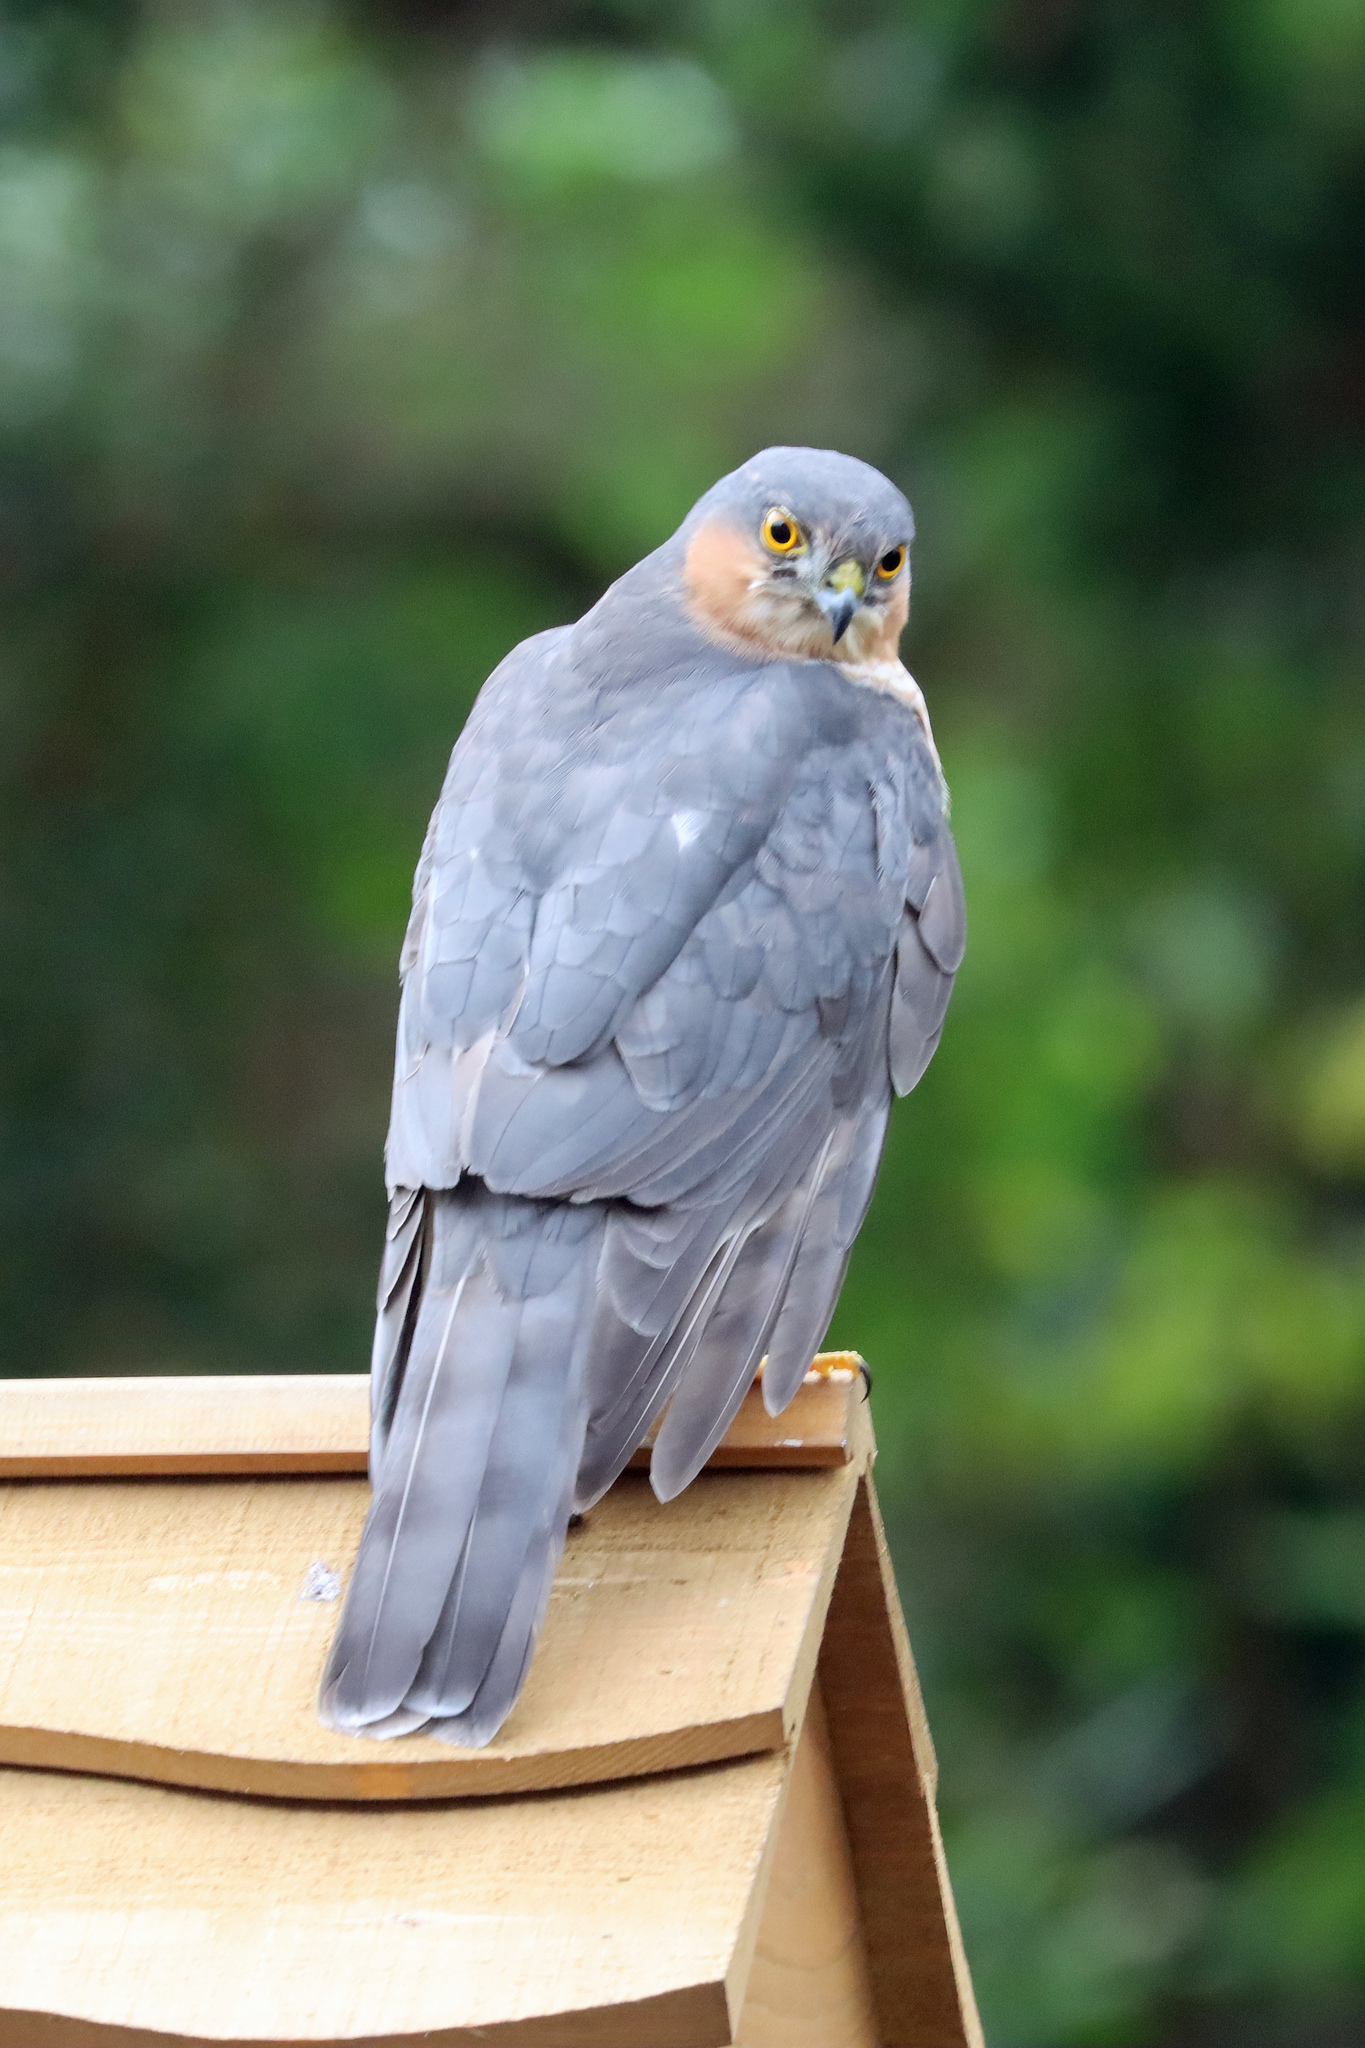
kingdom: Animalia
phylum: Chordata
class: Aves
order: Accipitriformes
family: Accipitridae
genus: Accipiter
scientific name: Accipiter nisus
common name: Eurasian sparrowhawk
